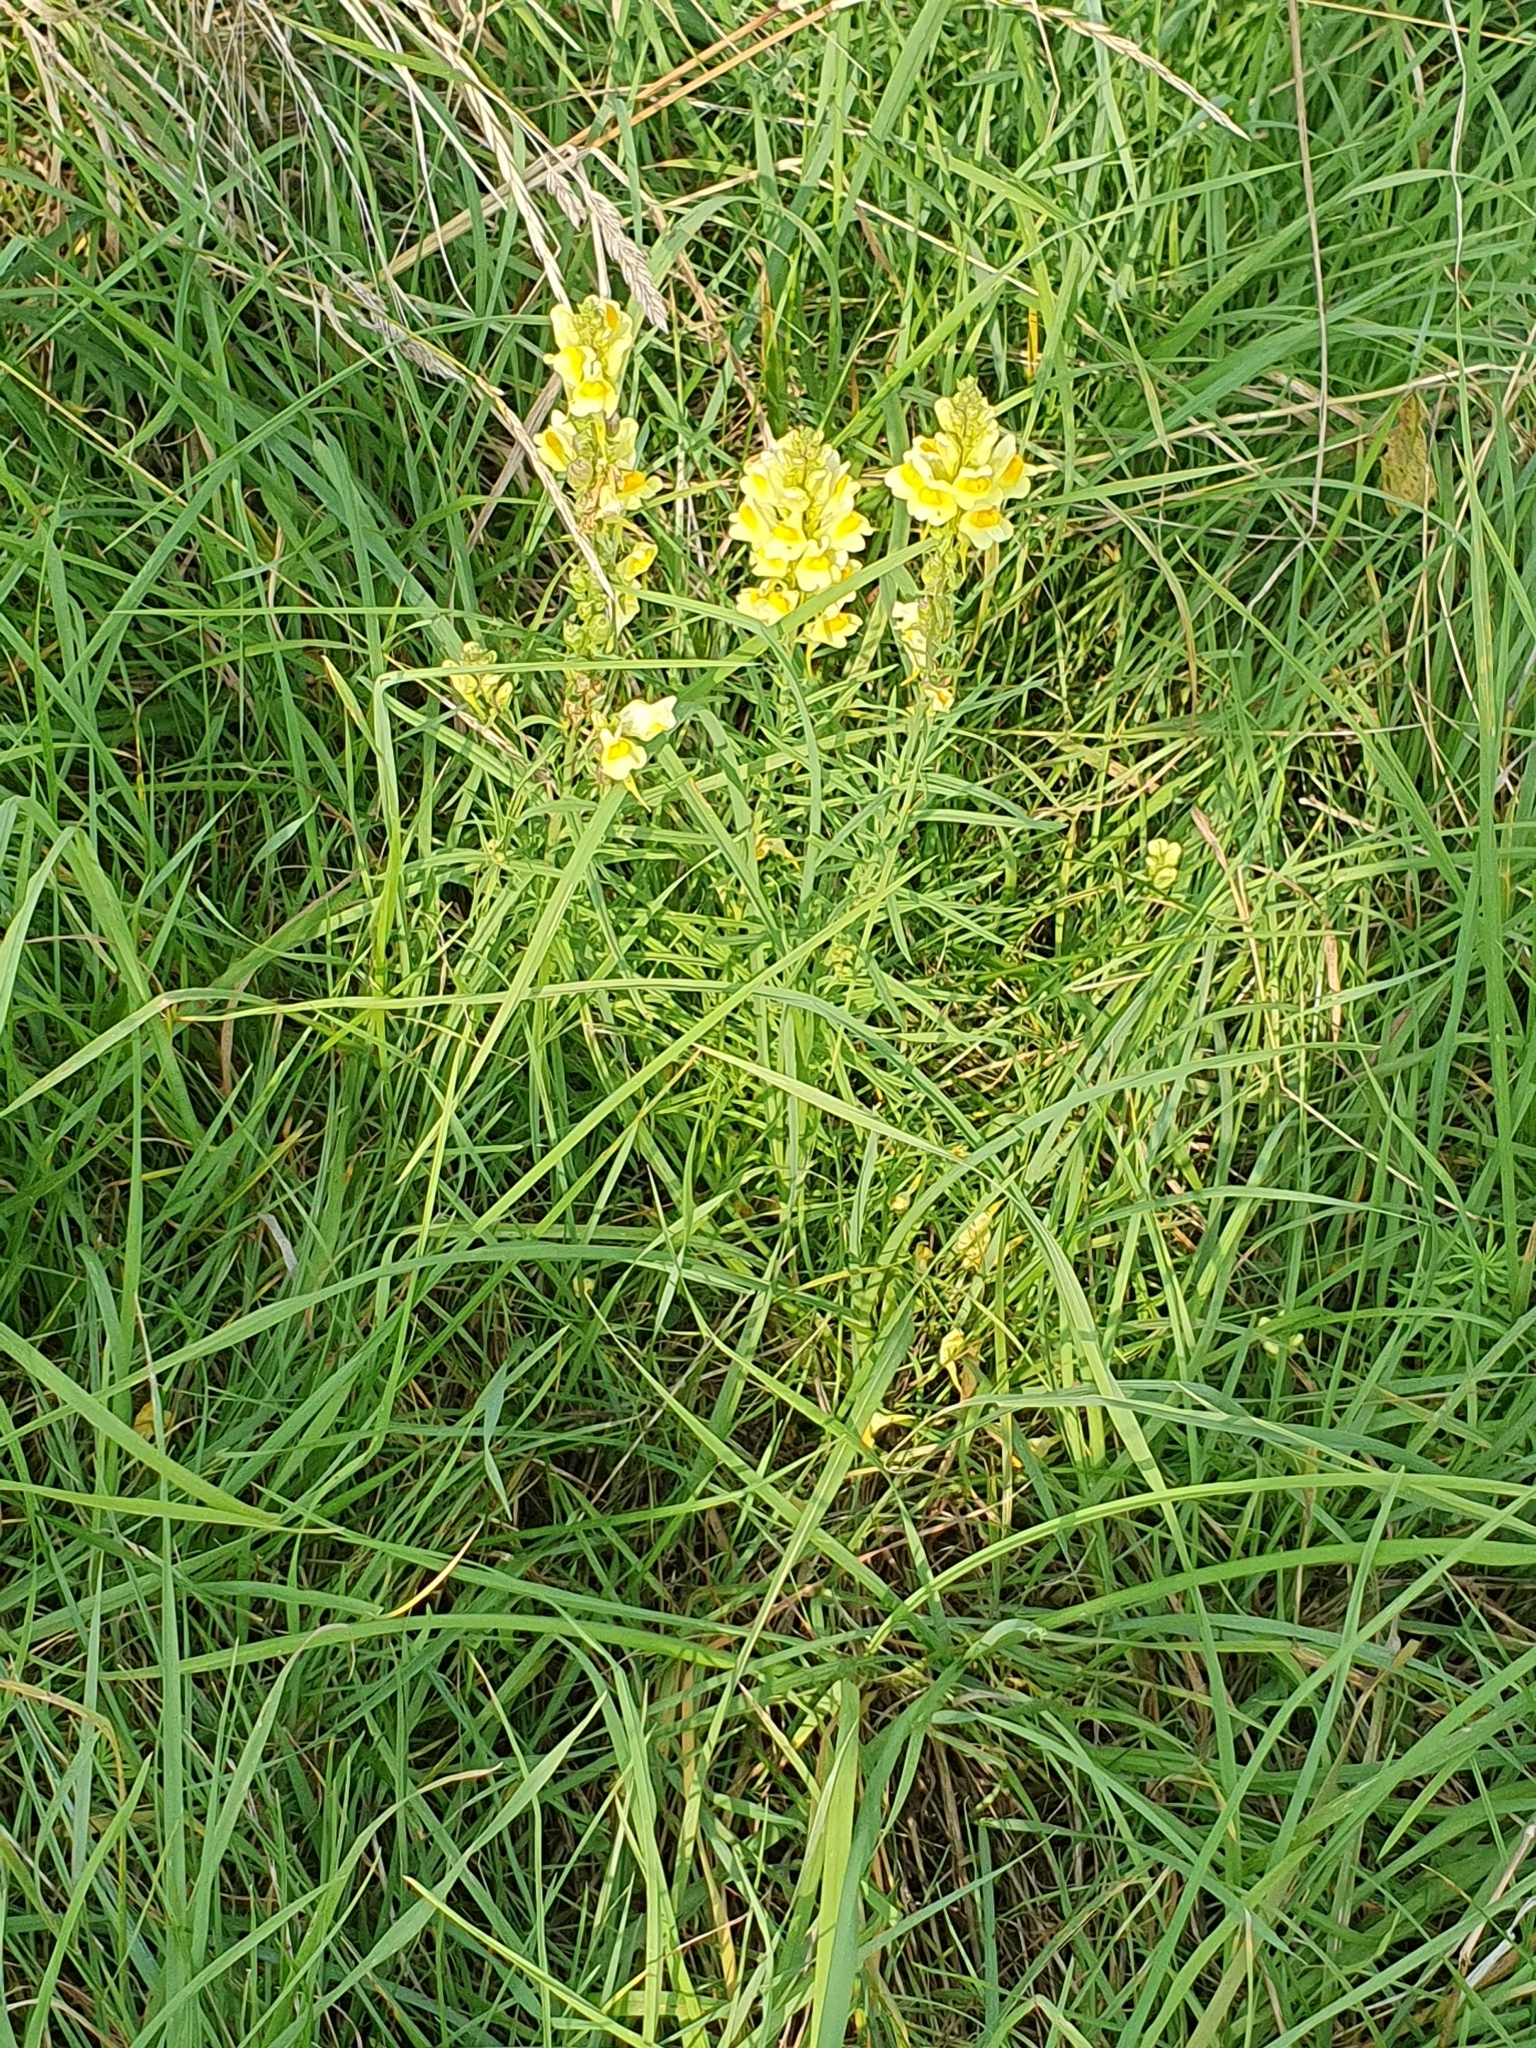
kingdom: Plantae
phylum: Tracheophyta
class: Magnoliopsida
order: Lamiales
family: Plantaginaceae
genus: Linaria
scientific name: Linaria vulgaris
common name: Butter and eggs
